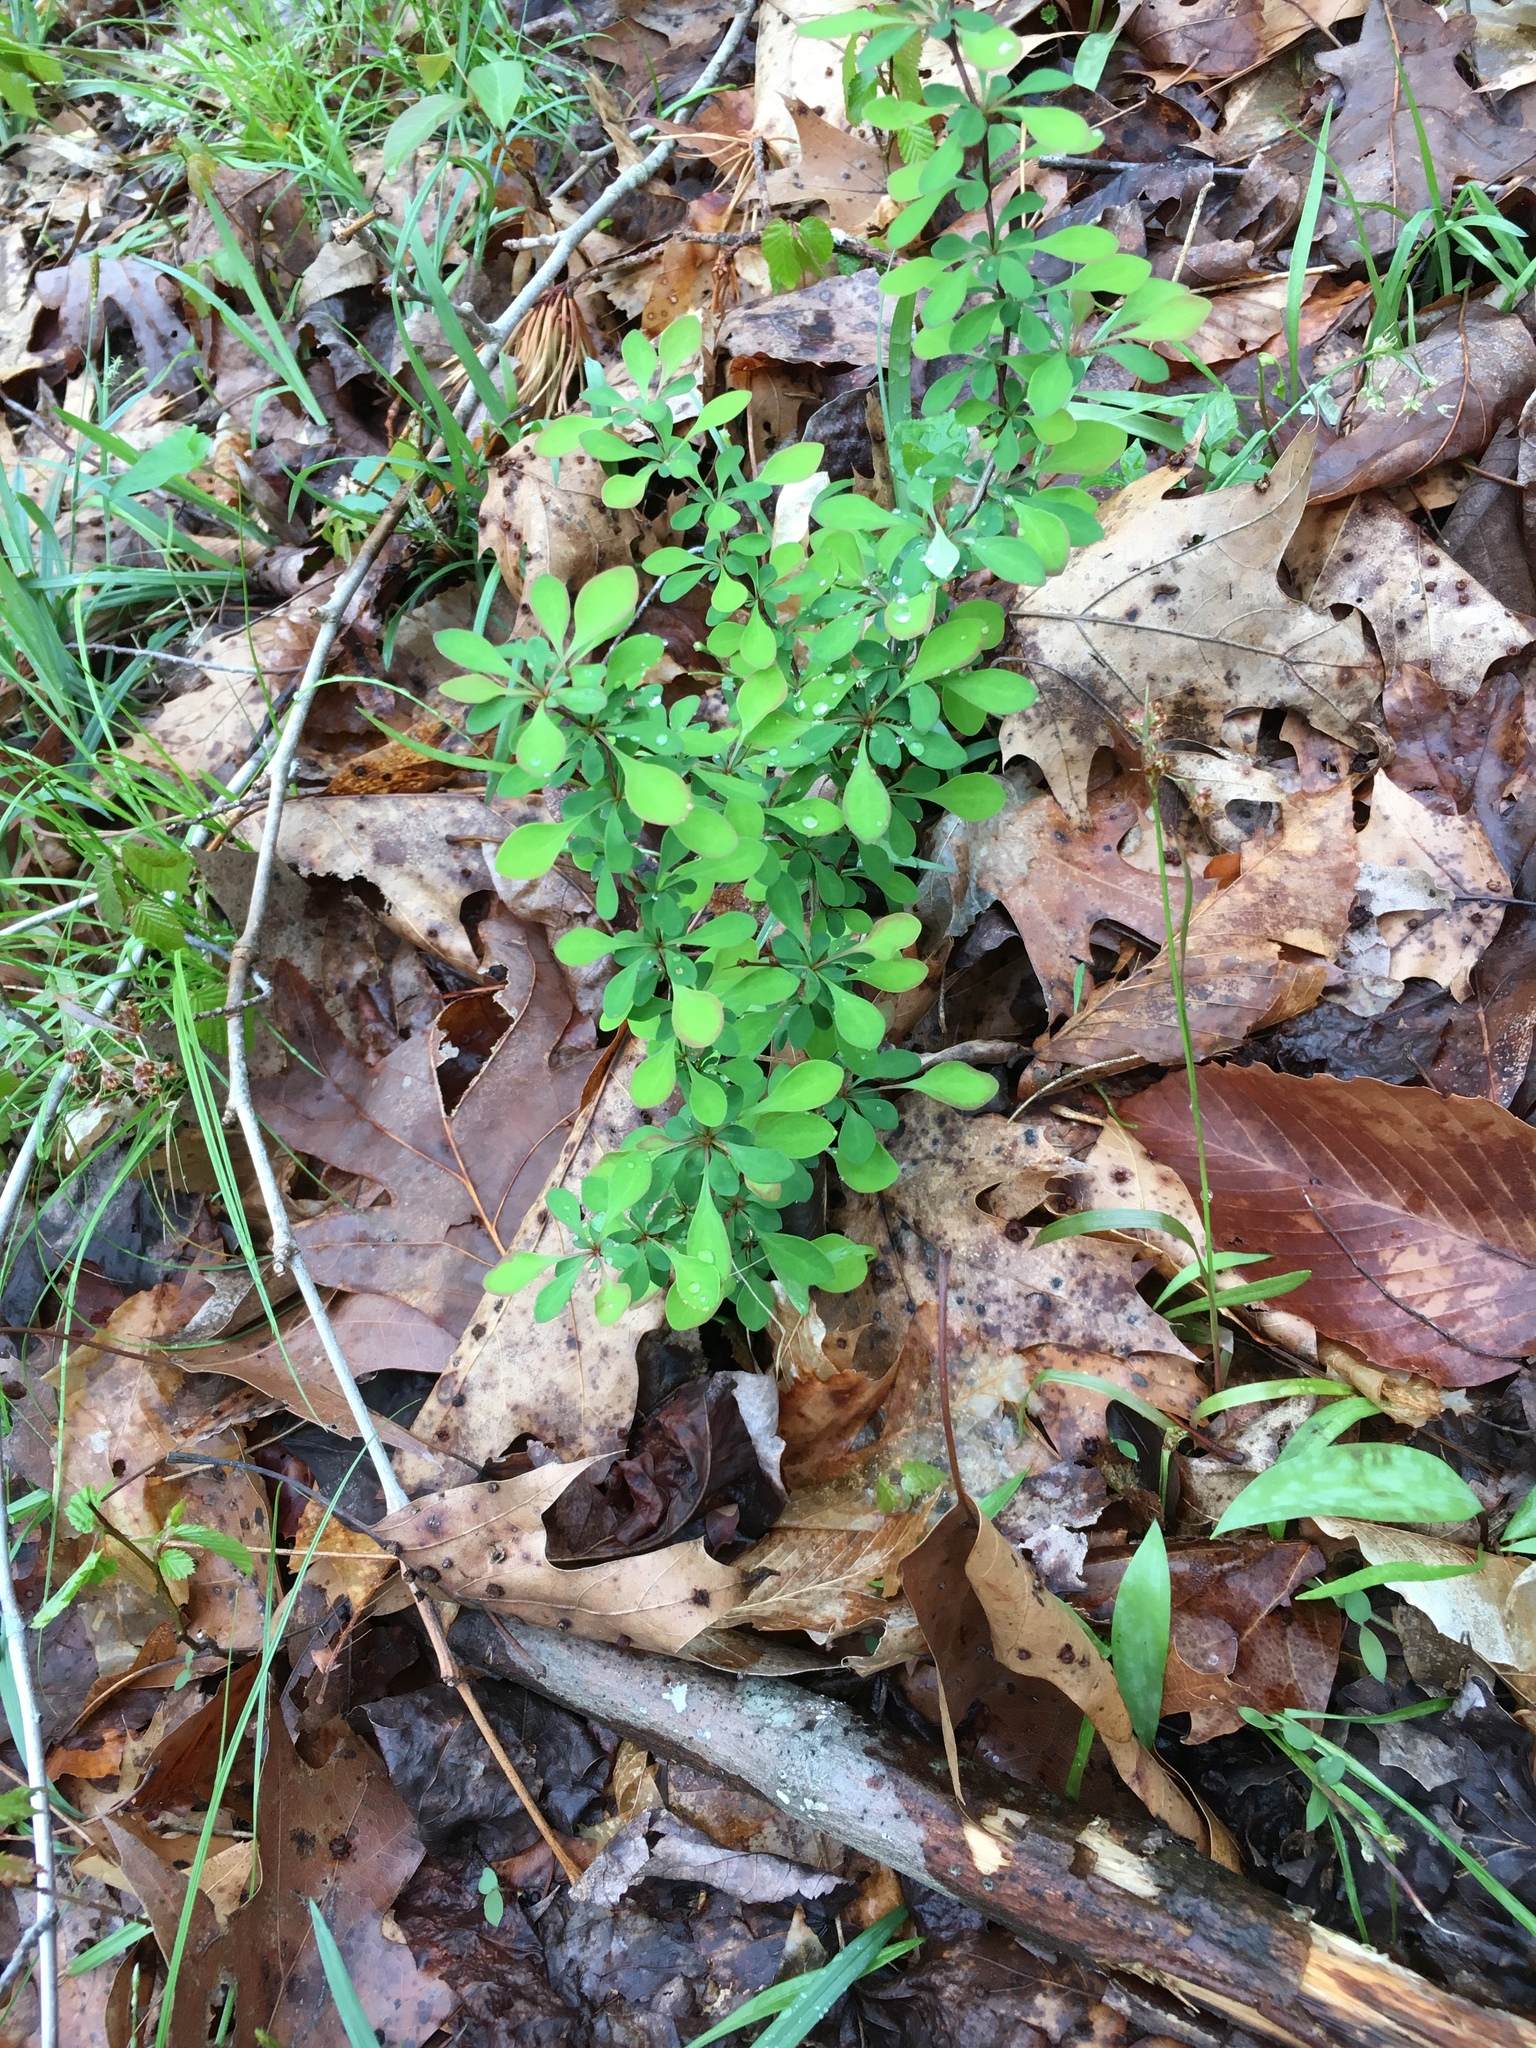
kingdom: Plantae
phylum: Tracheophyta
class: Magnoliopsida
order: Ranunculales
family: Berberidaceae
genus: Berberis
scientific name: Berberis thunbergii
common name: Japanese barberry
